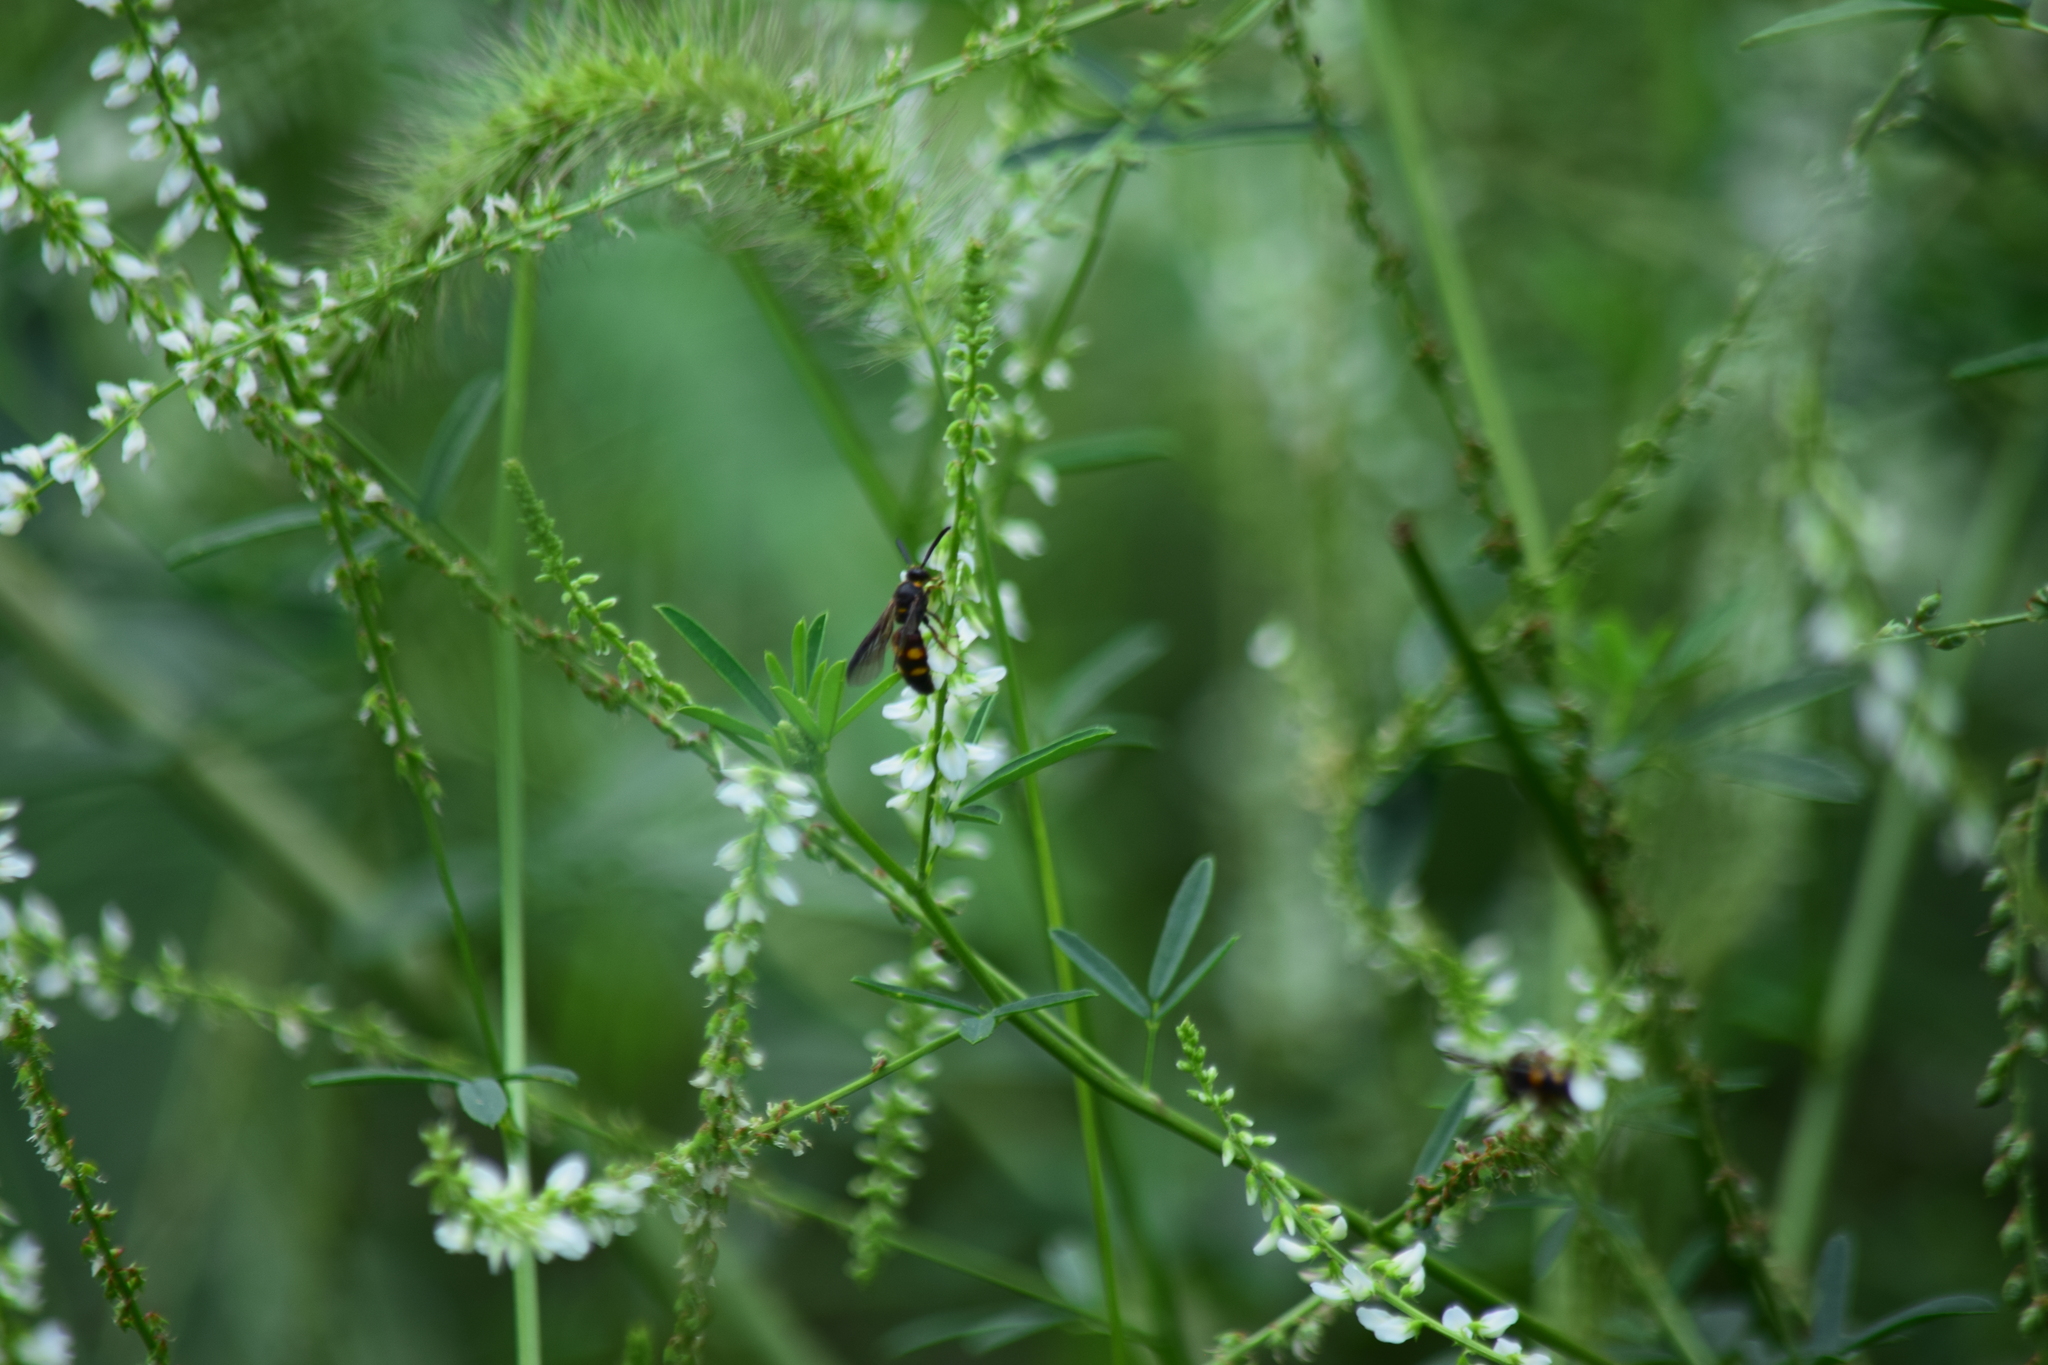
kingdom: Animalia
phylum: Arthropoda
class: Insecta
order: Hymenoptera
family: Scoliidae
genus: Scolia
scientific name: Scolia nobilitata
